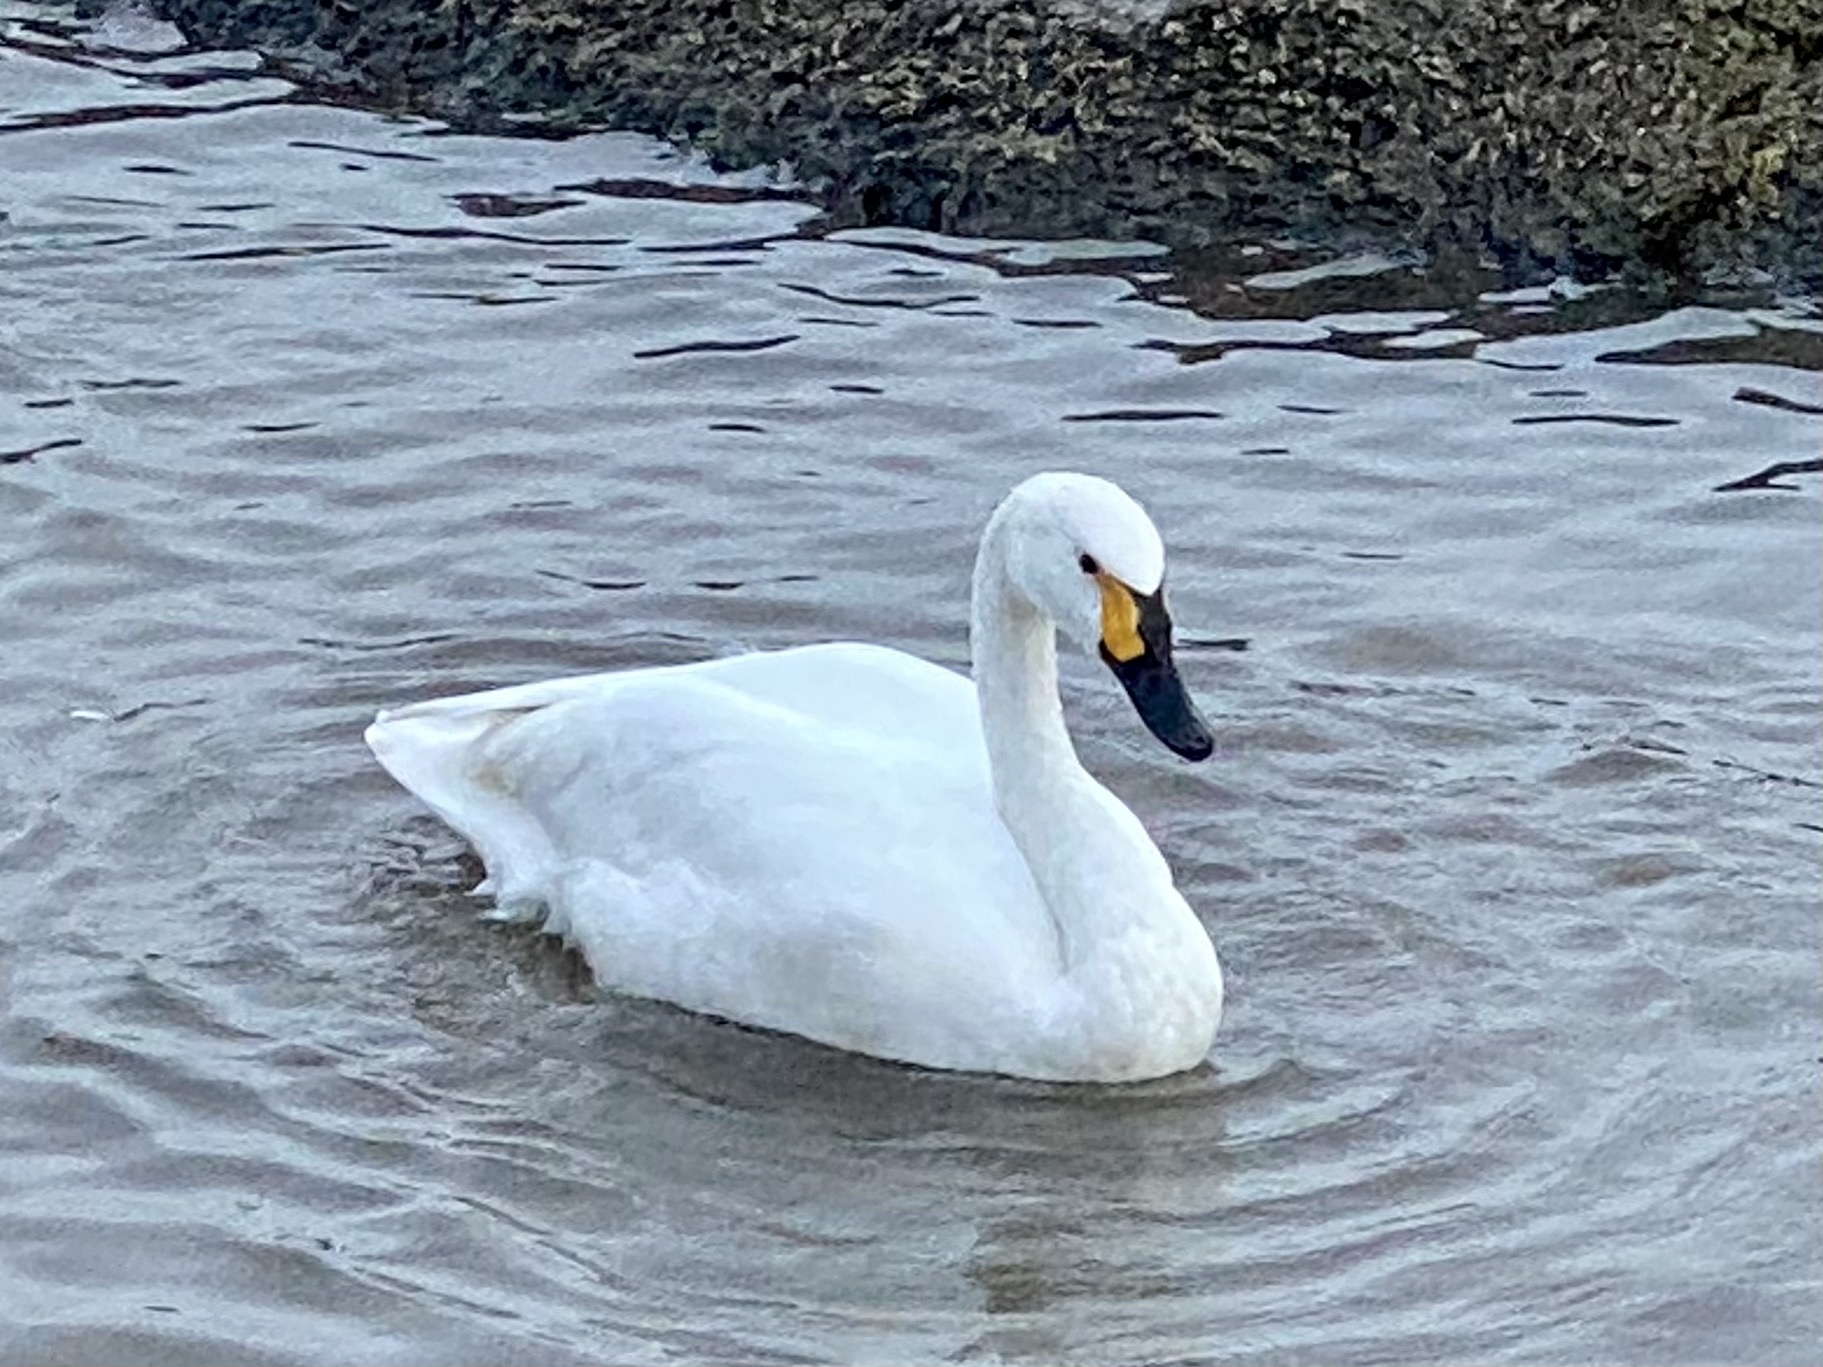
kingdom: Animalia
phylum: Chordata
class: Aves
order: Anseriformes
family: Anatidae
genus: Cygnus
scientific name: Cygnus columbianus
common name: Tundra swan
